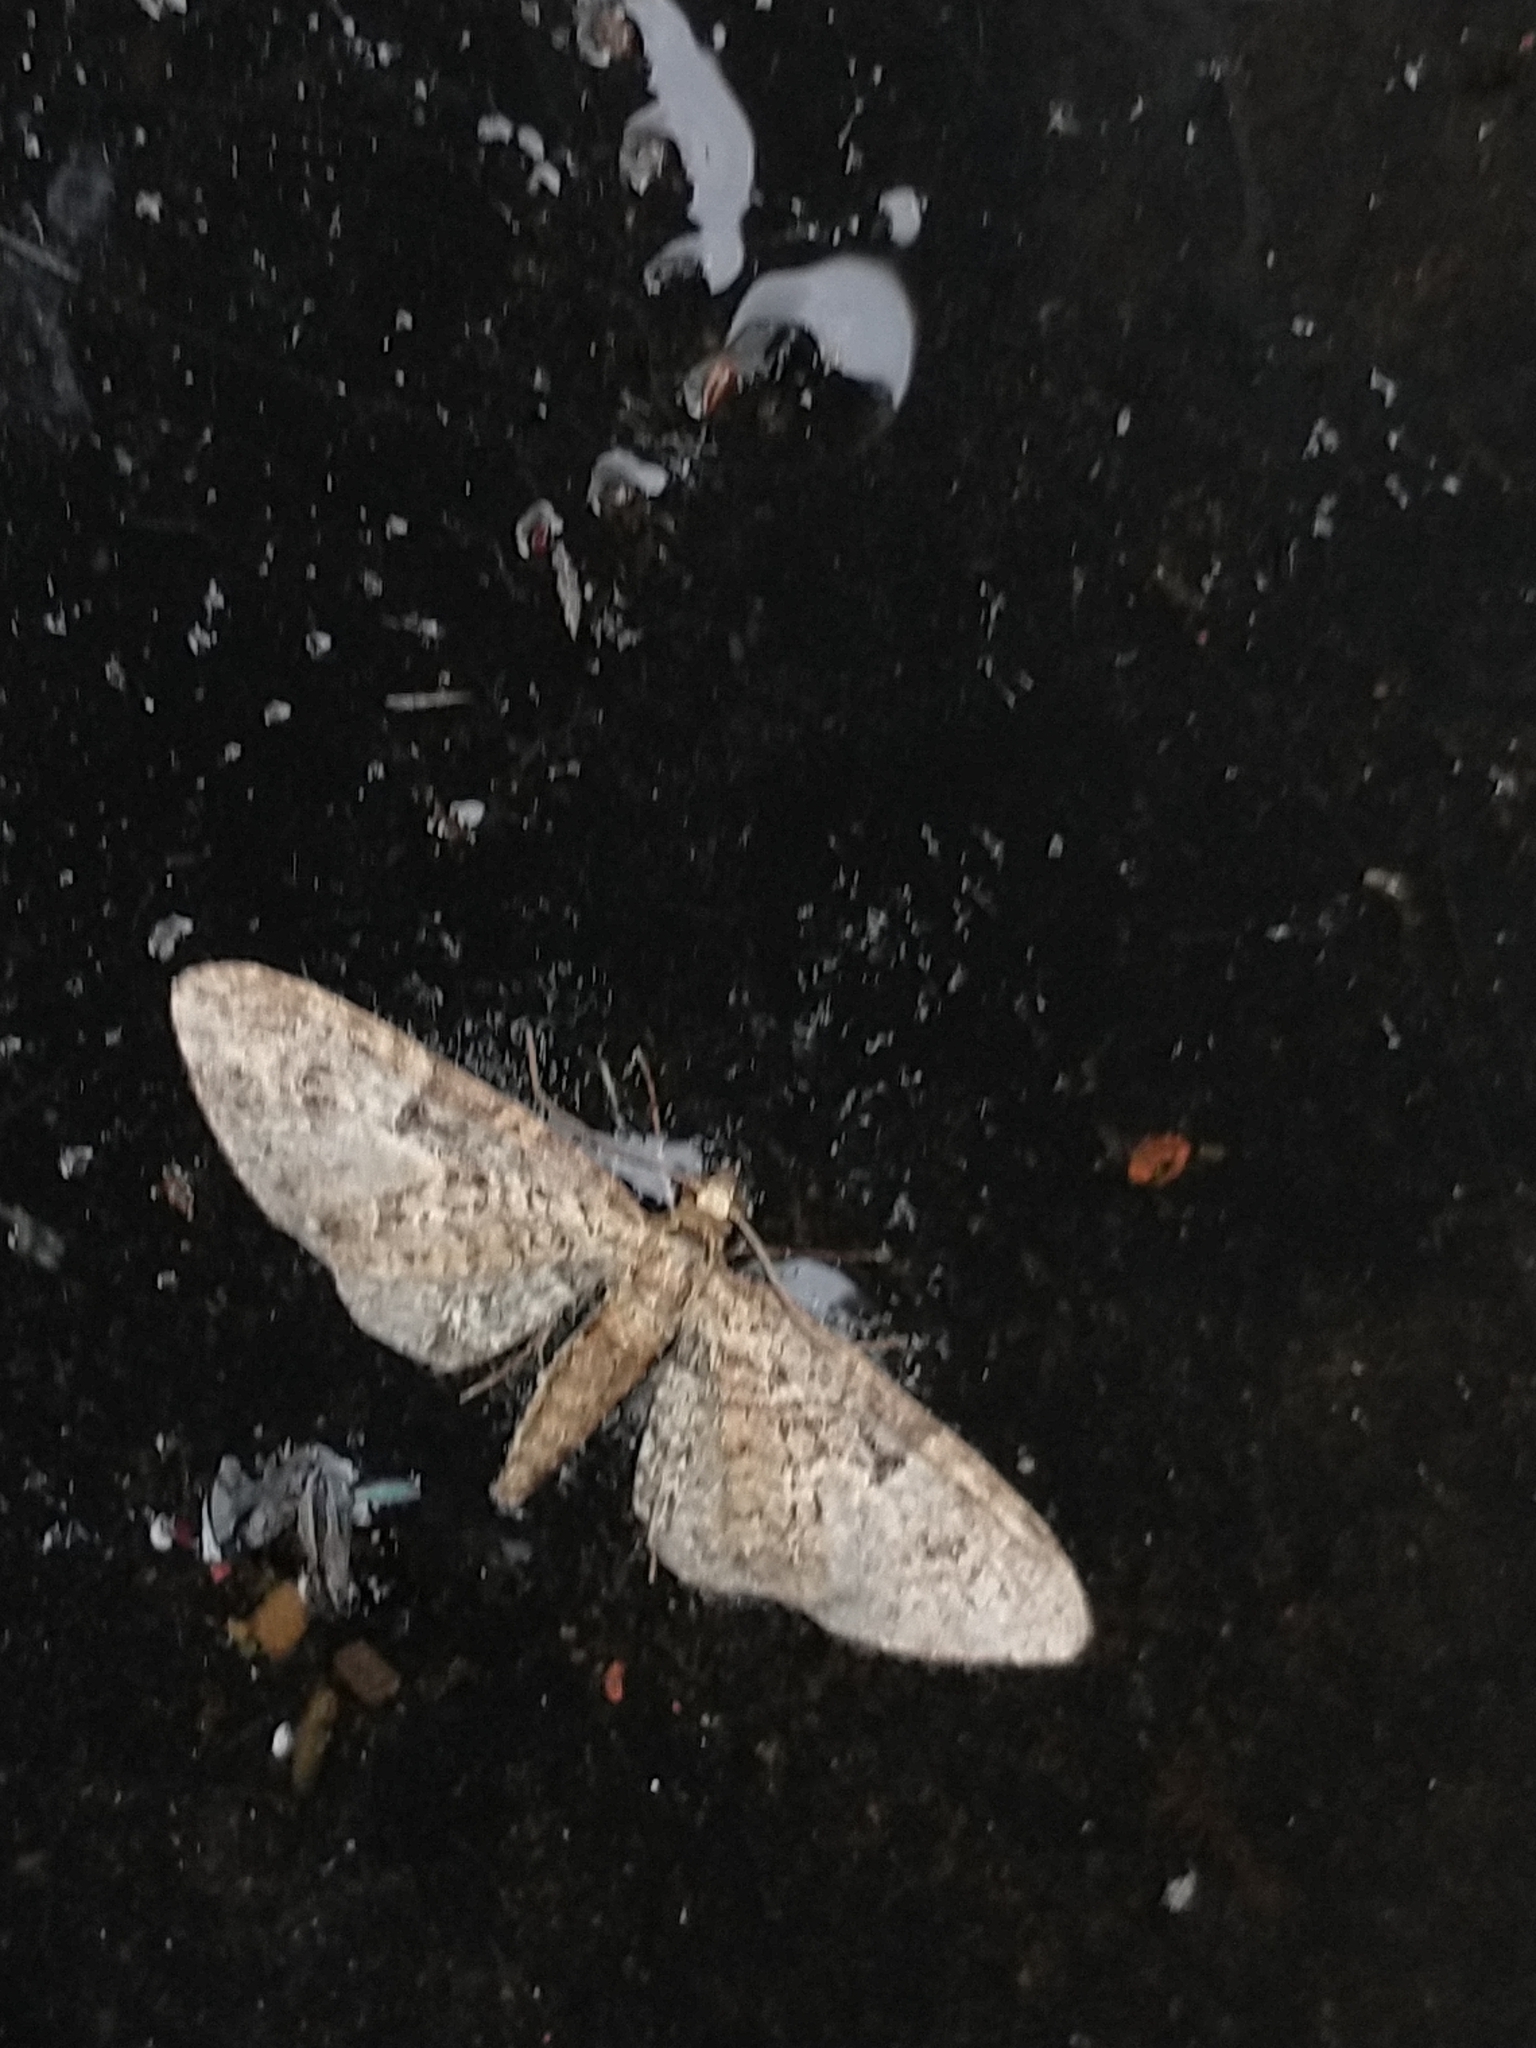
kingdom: Animalia
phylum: Arthropoda
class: Insecta
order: Lepidoptera
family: Geometridae
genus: Eupithecia
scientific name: Eupithecia dodoneata
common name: Oak-tree pug
